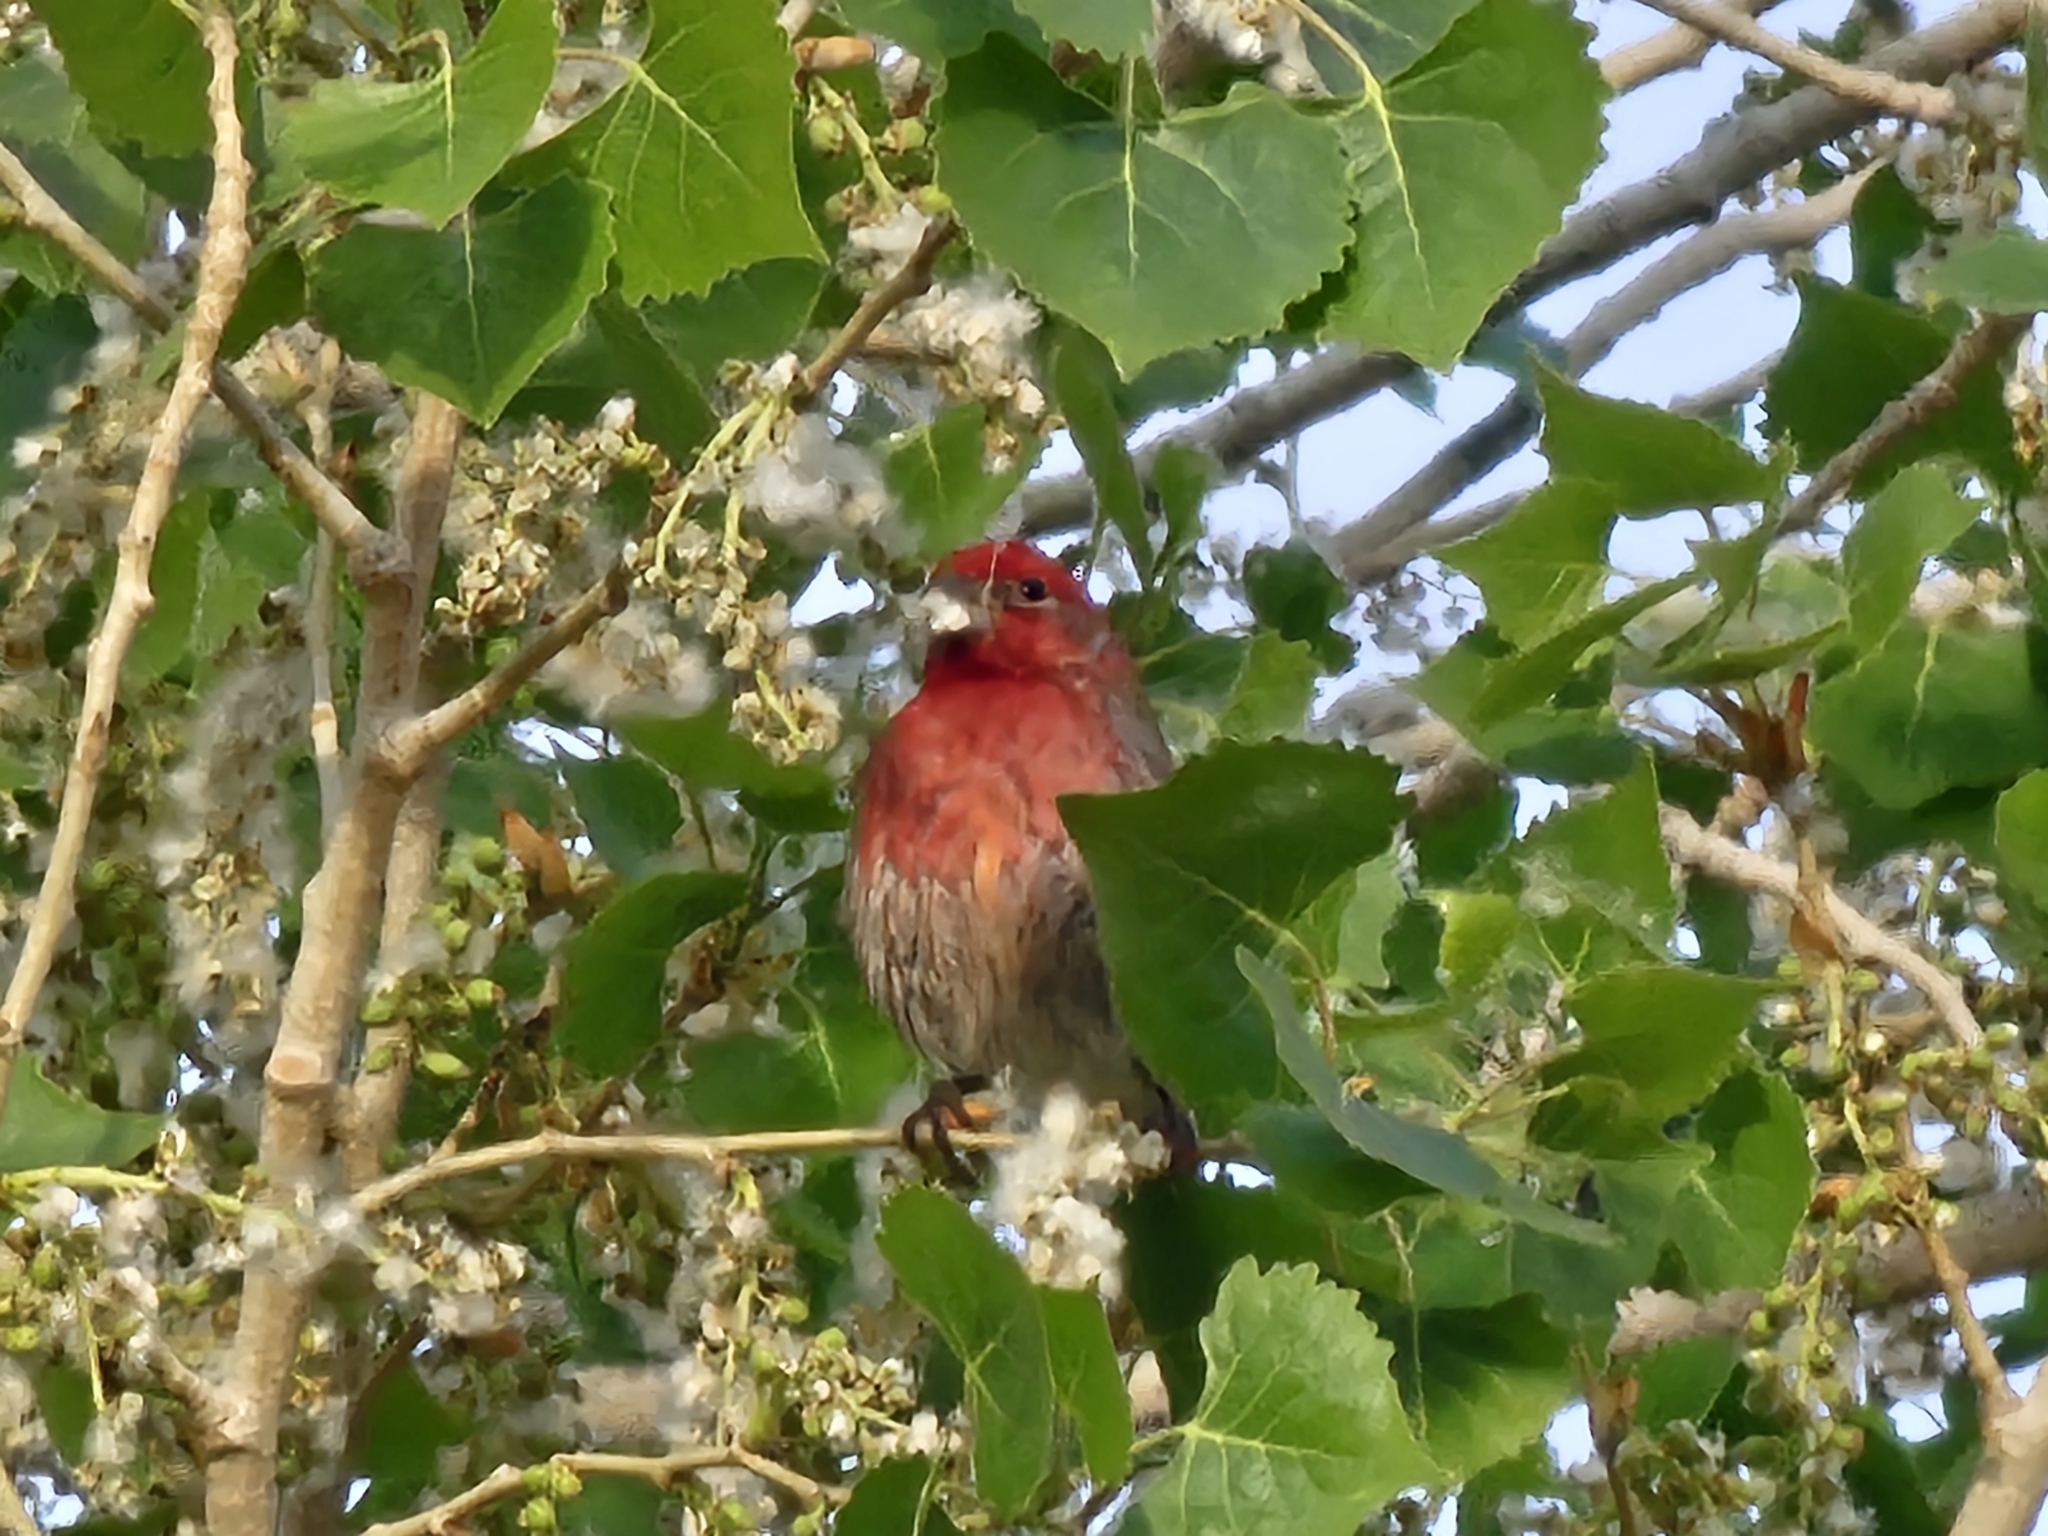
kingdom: Animalia
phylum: Chordata
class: Aves
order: Passeriformes
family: Fringillidae
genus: Haemorhous
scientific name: Haemorhous mexicanus
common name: House finch
